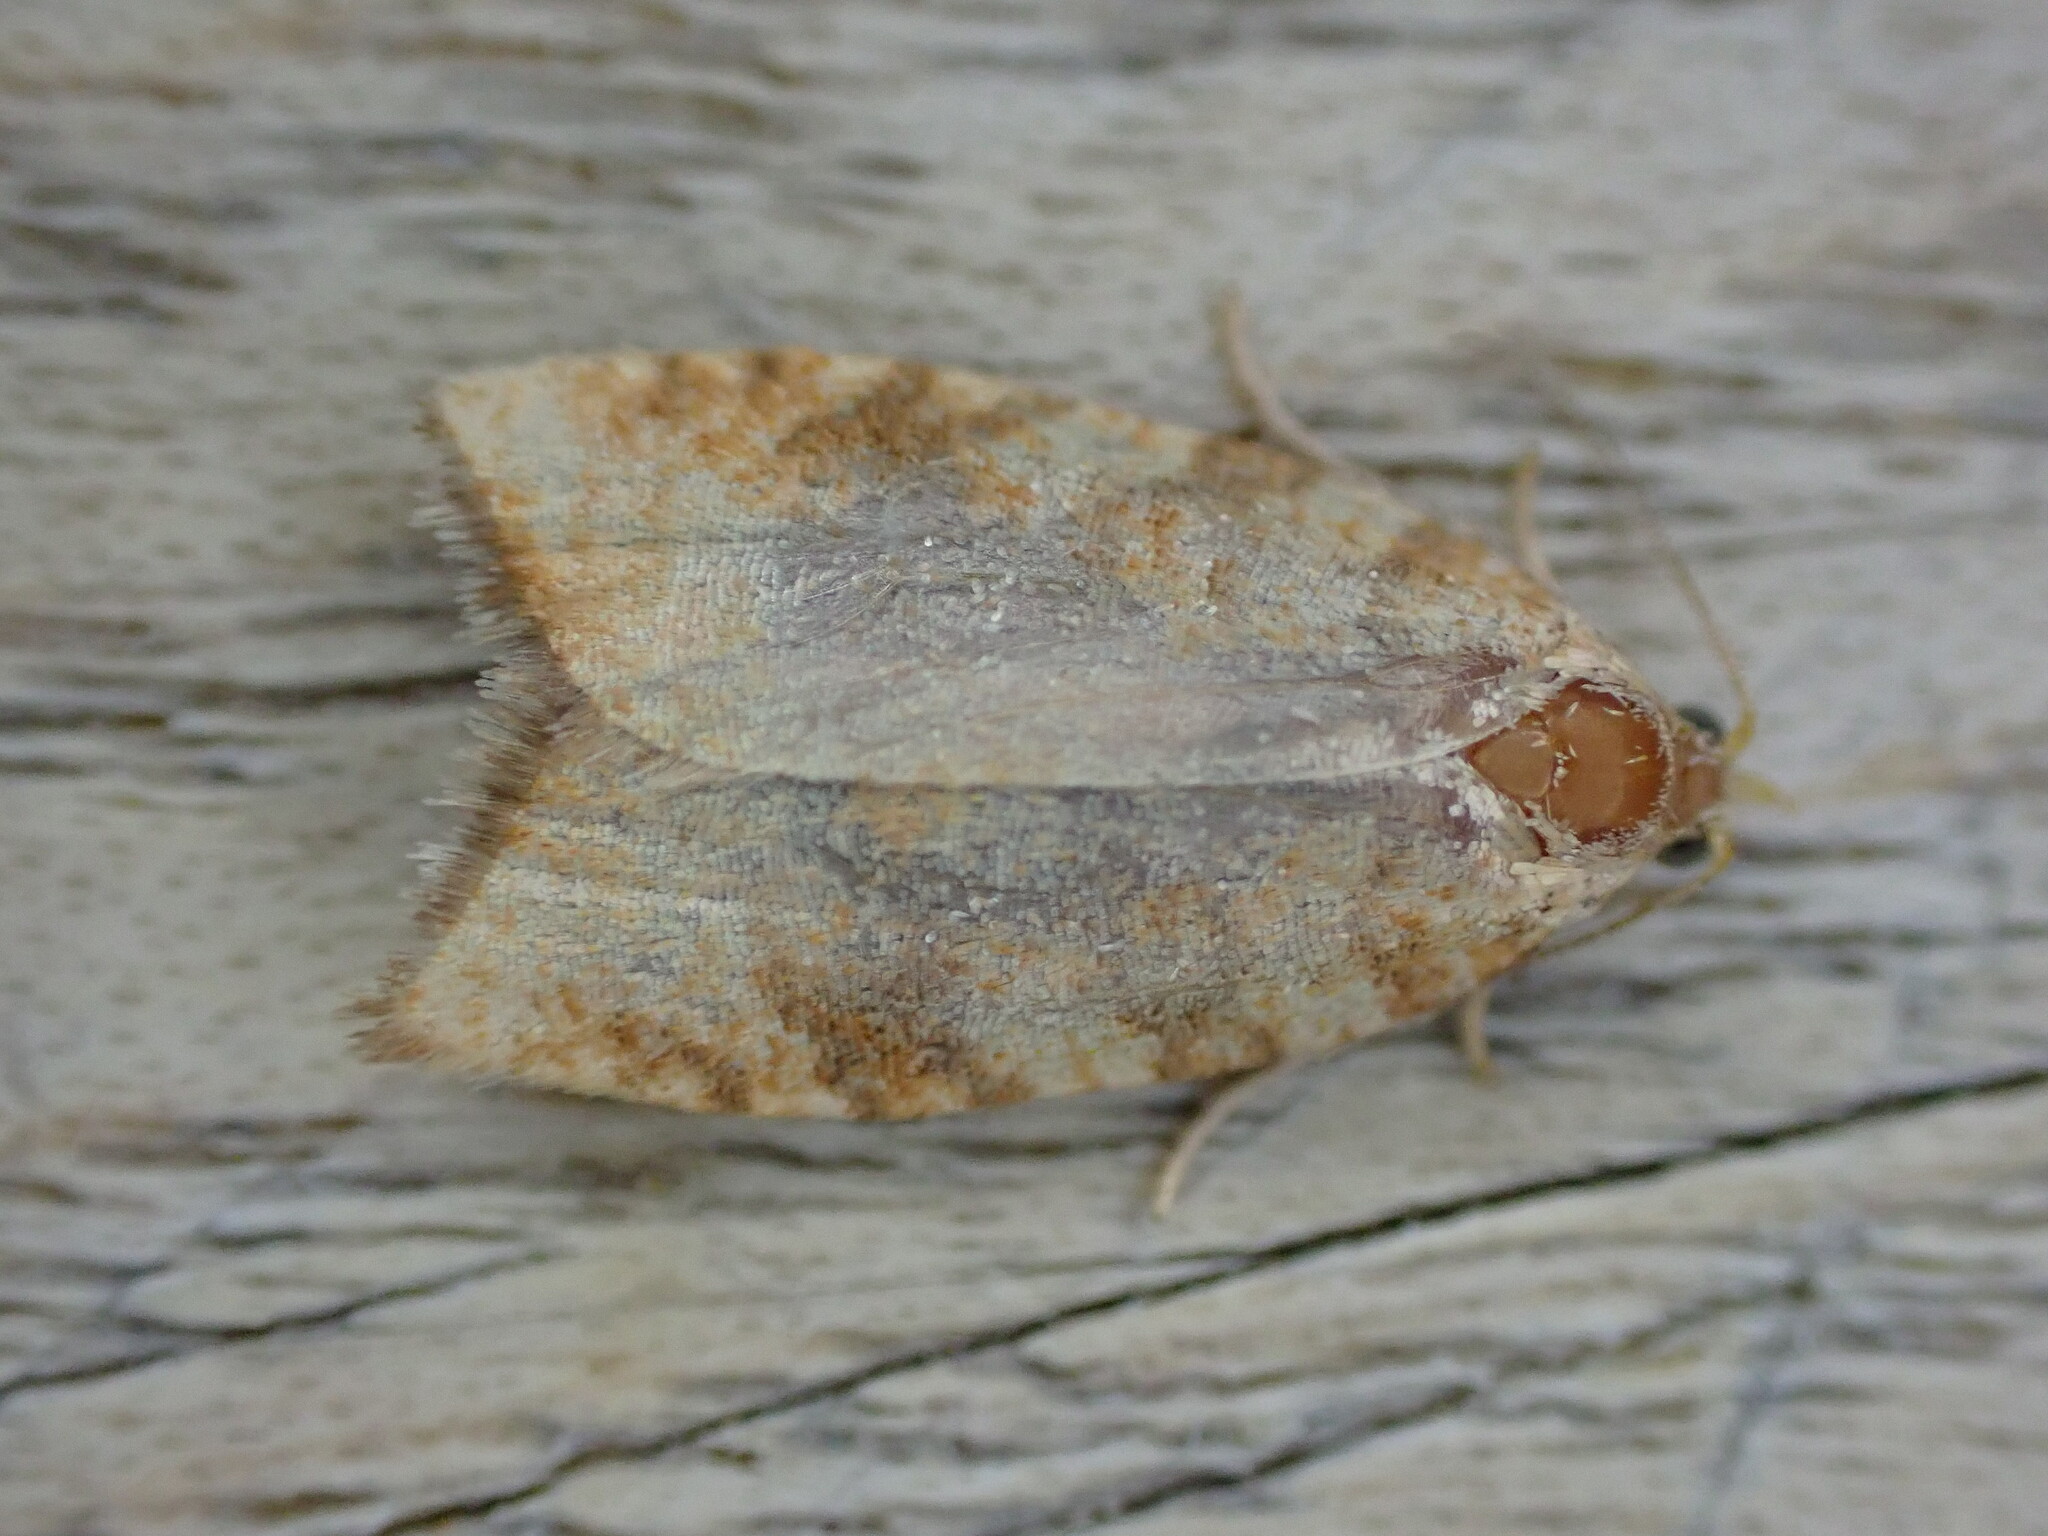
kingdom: Animalia
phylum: Arthropoda
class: Insecta
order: Lepidoptera
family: Tortricidae
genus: Aleimma
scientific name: Aleimma loeflingiana
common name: Yellow oak button
